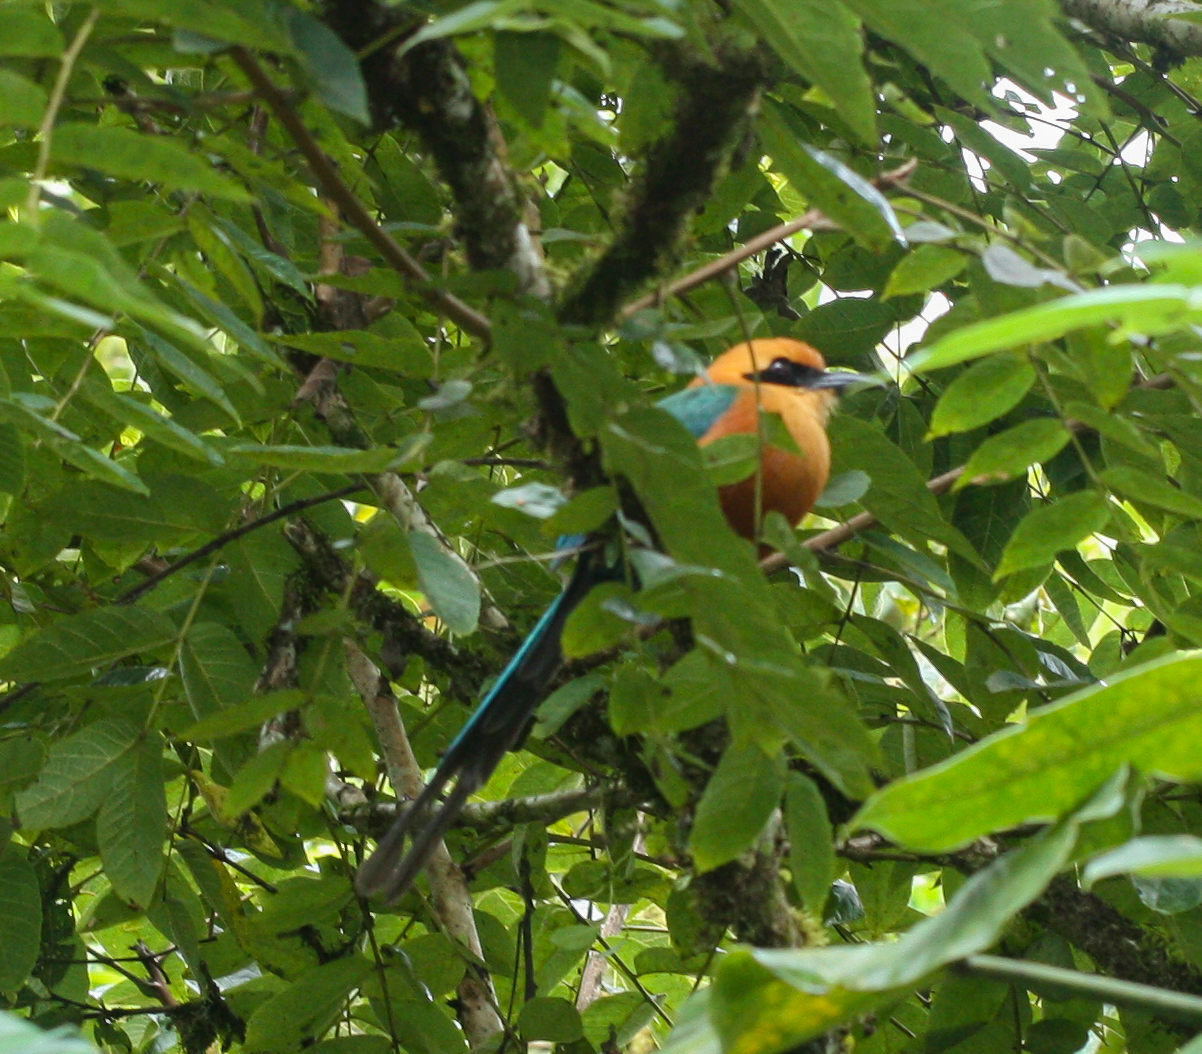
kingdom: Animalia
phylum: Chordata
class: Aves
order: Coraciiformes
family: Momotidae
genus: Baryphthengus
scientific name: Baryphthengus martii
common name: Rufous motmot
